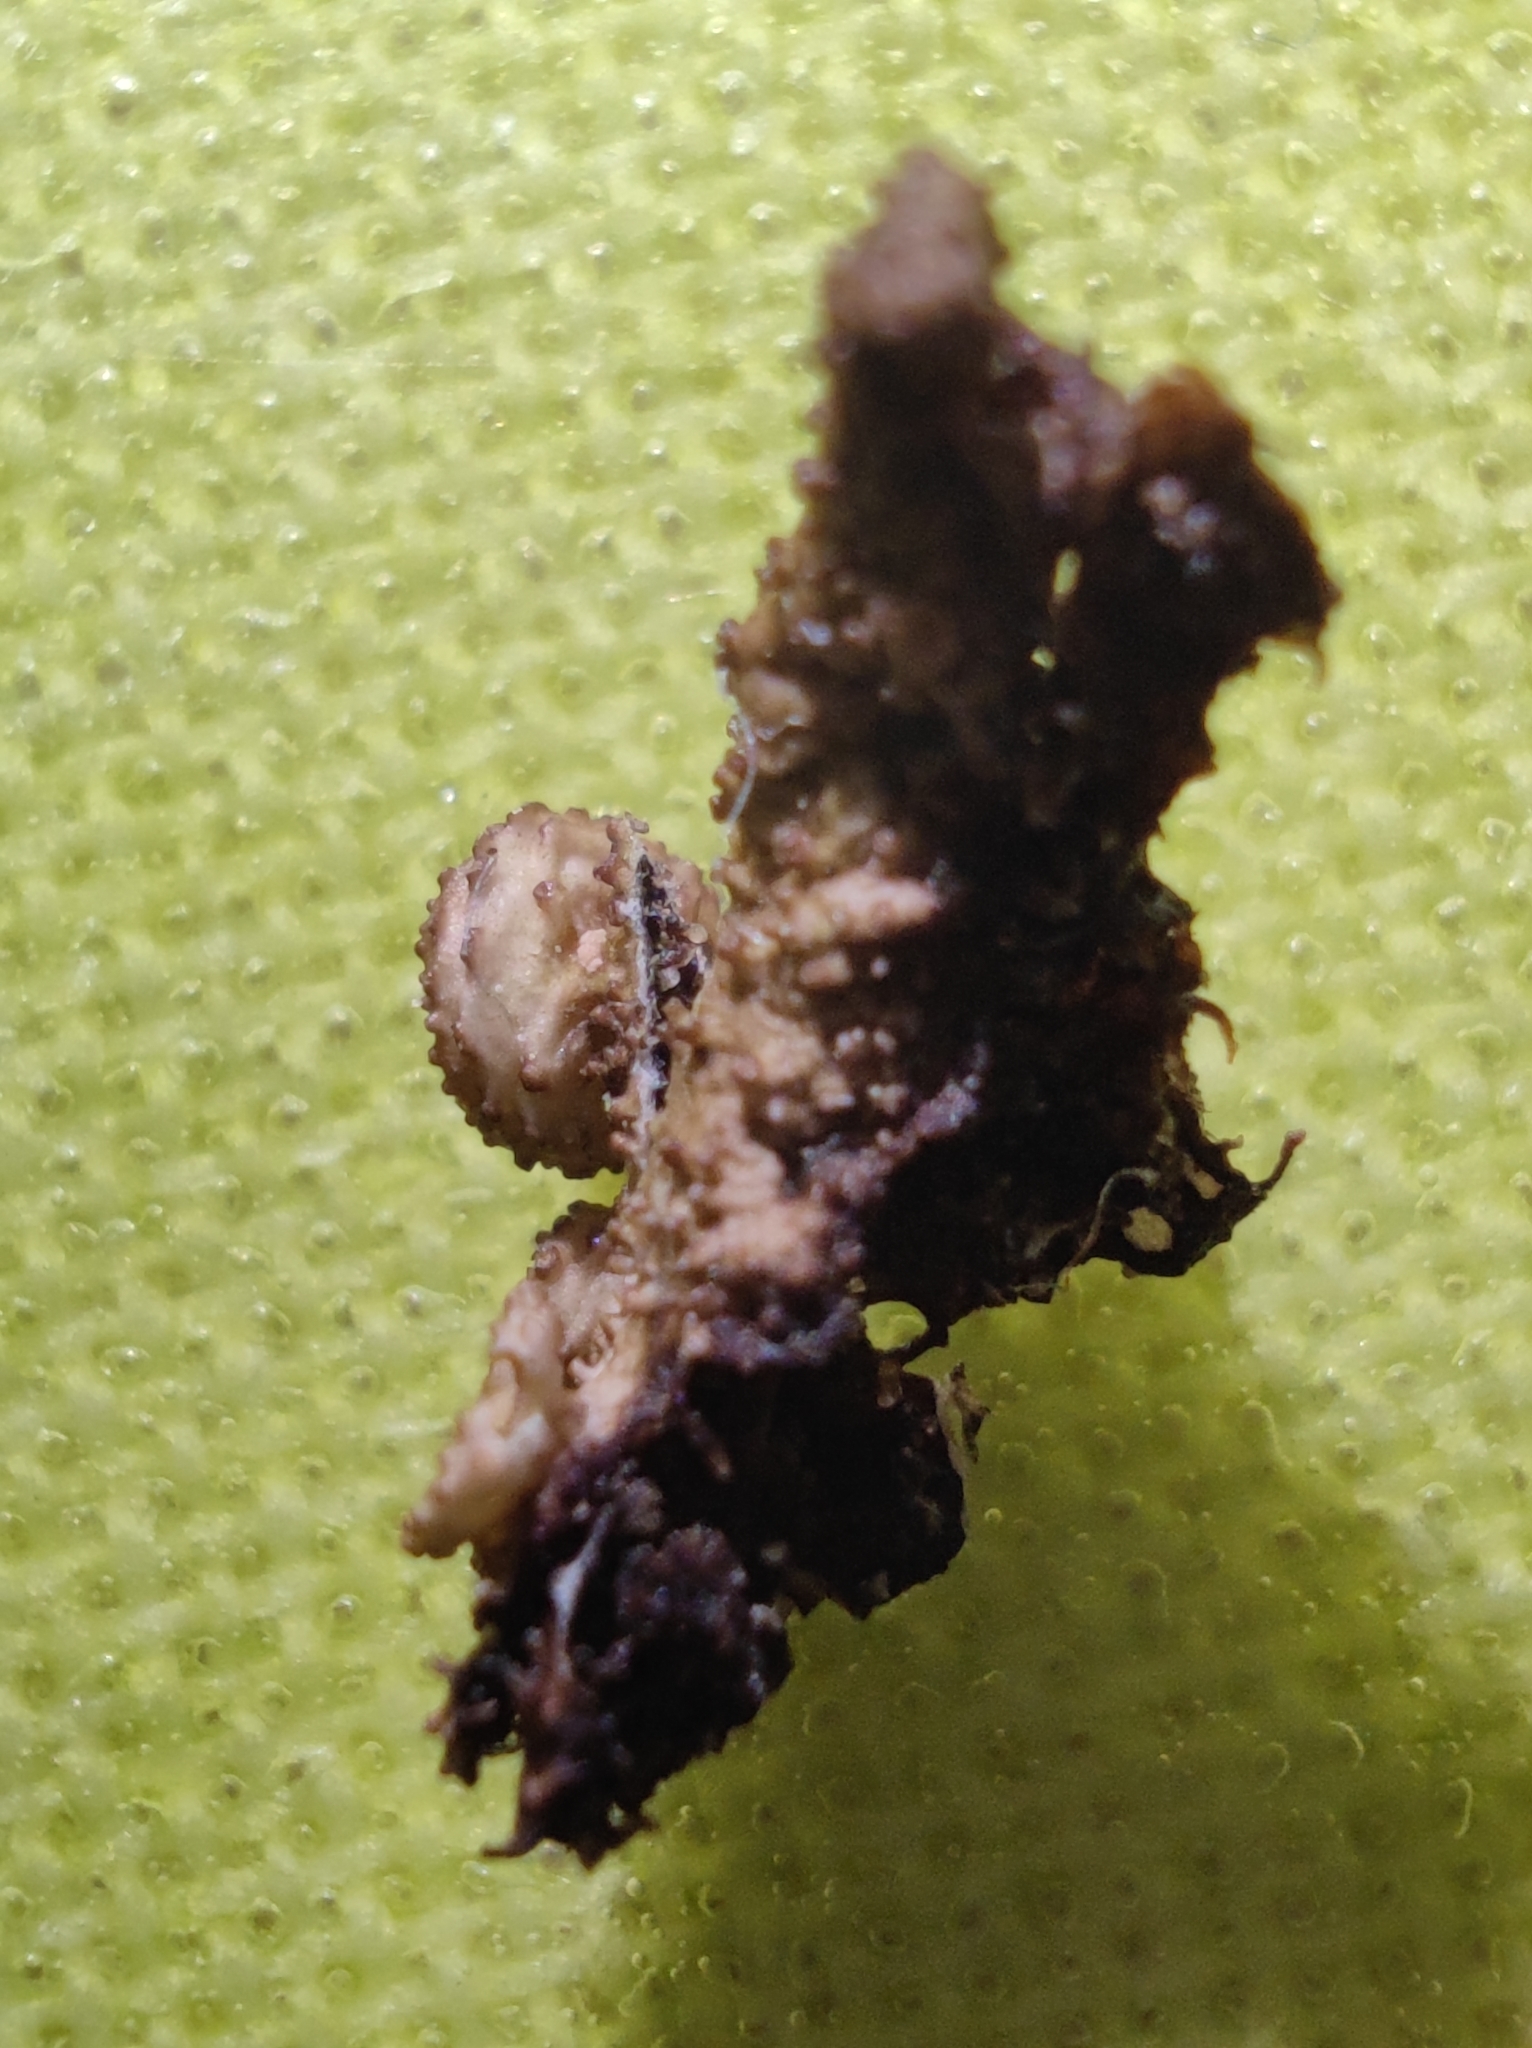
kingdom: Fungi
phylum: Ascomycota
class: Lecanoromycetes
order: Lecanorales
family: Parmeliaceae
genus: Melanohalea
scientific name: Melanohalea exasperata
